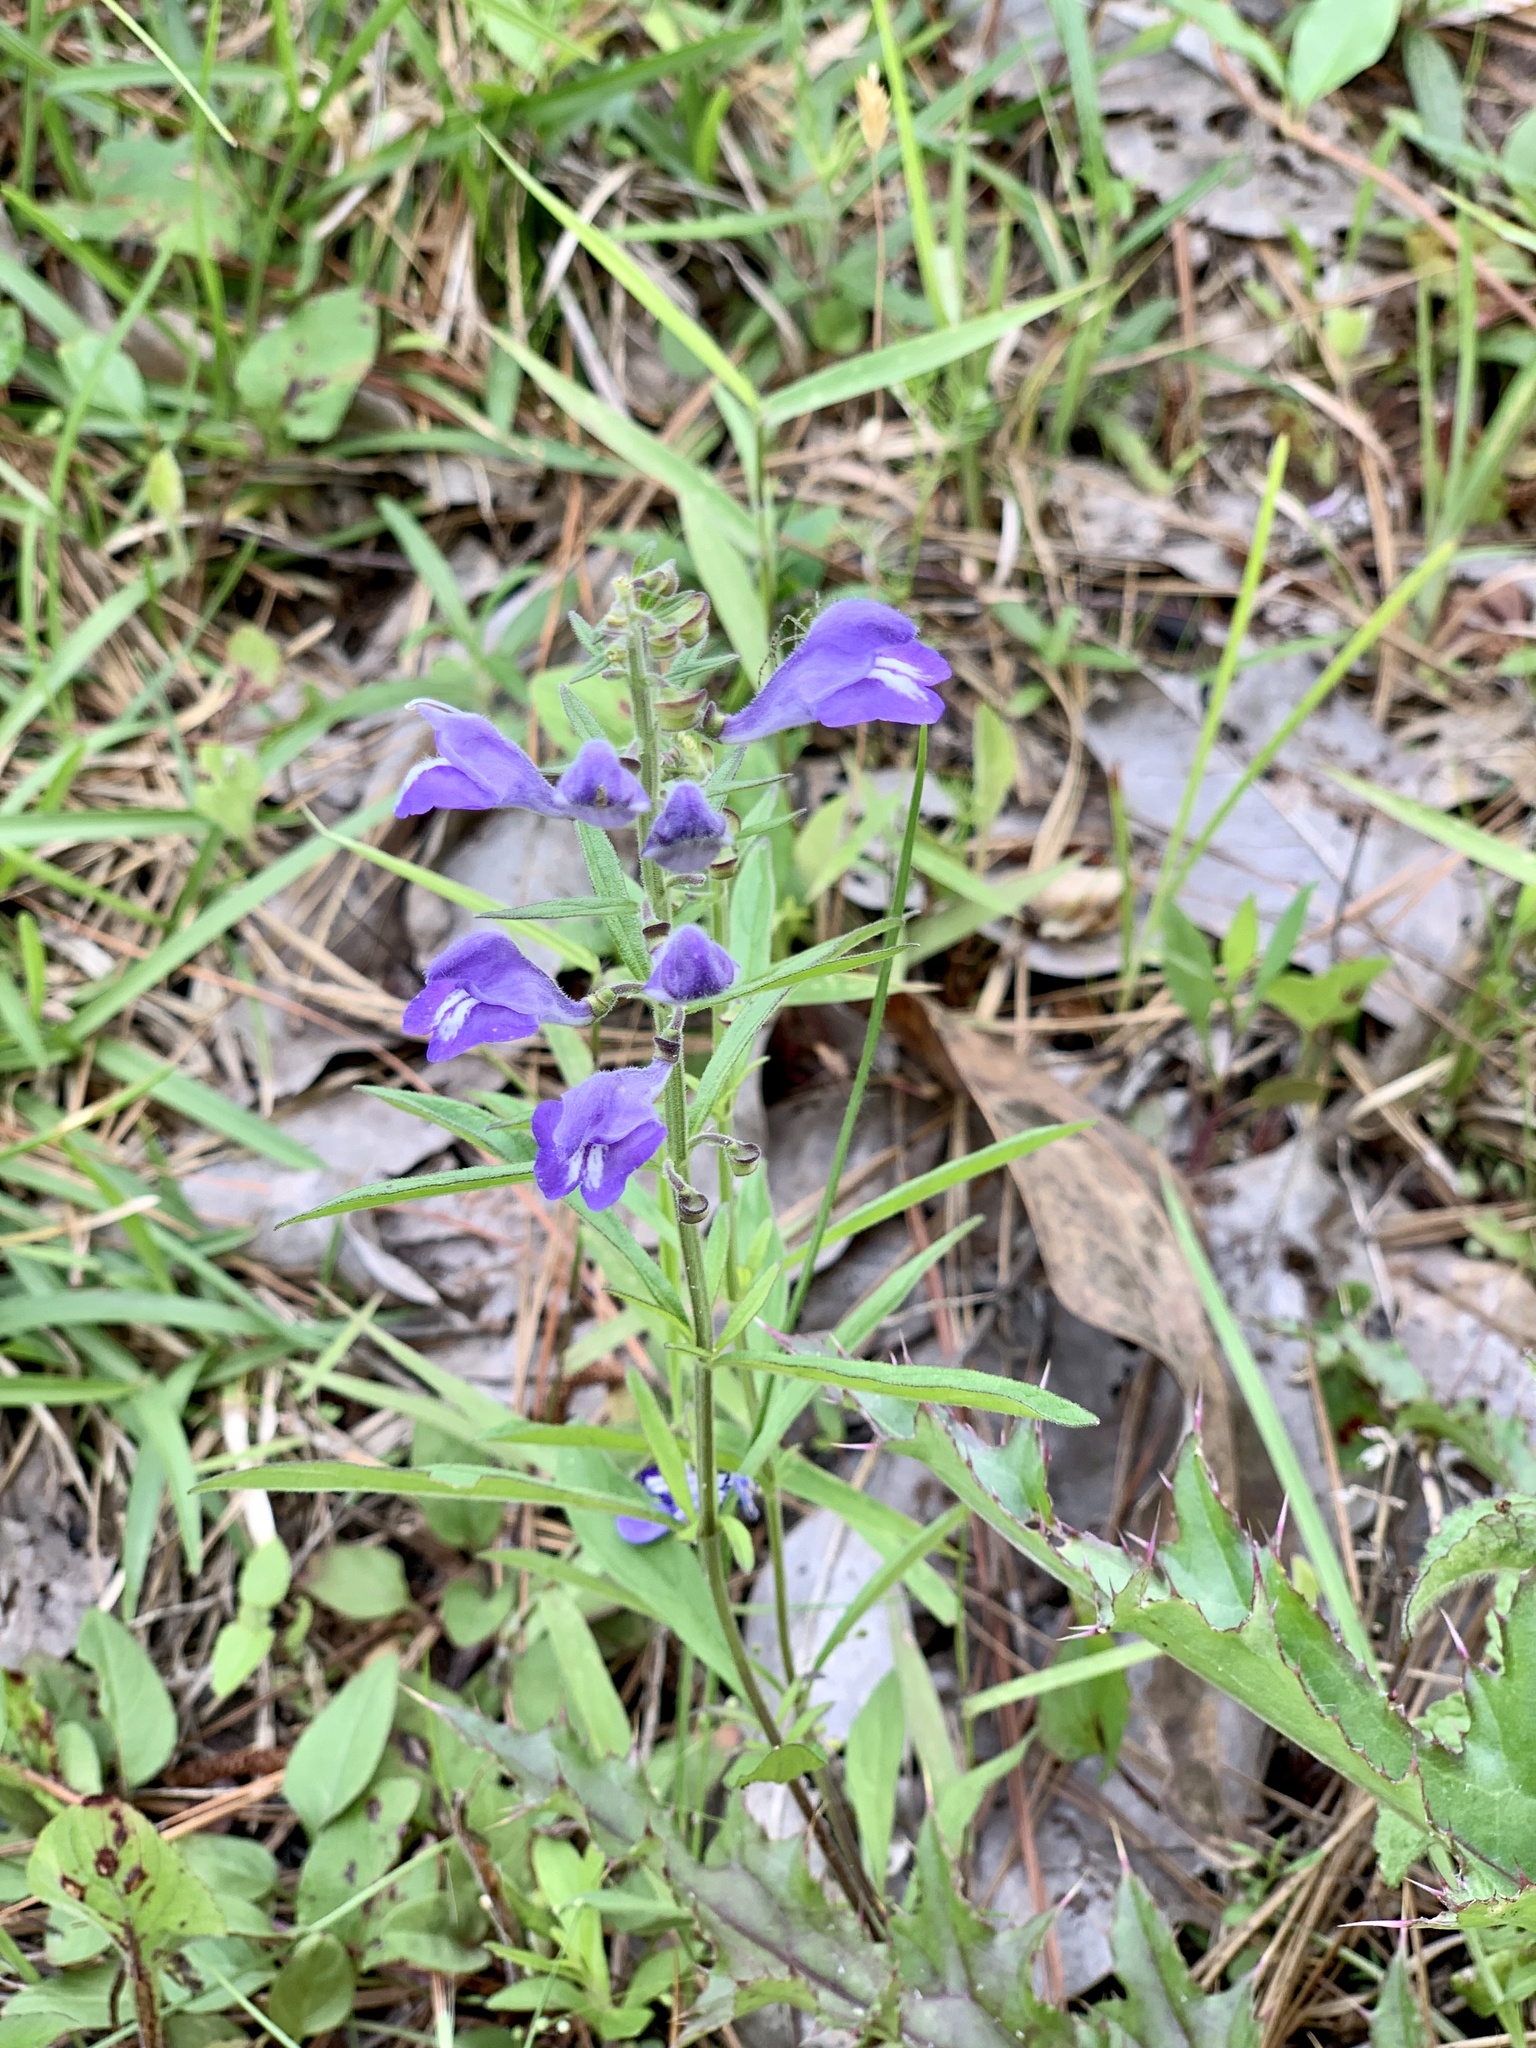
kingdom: Plantae
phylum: Tracheophyta
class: Magnoliopsida
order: Lamiales
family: Lamiaceae
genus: Scutellaria
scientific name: Scutellaria integrifolia
